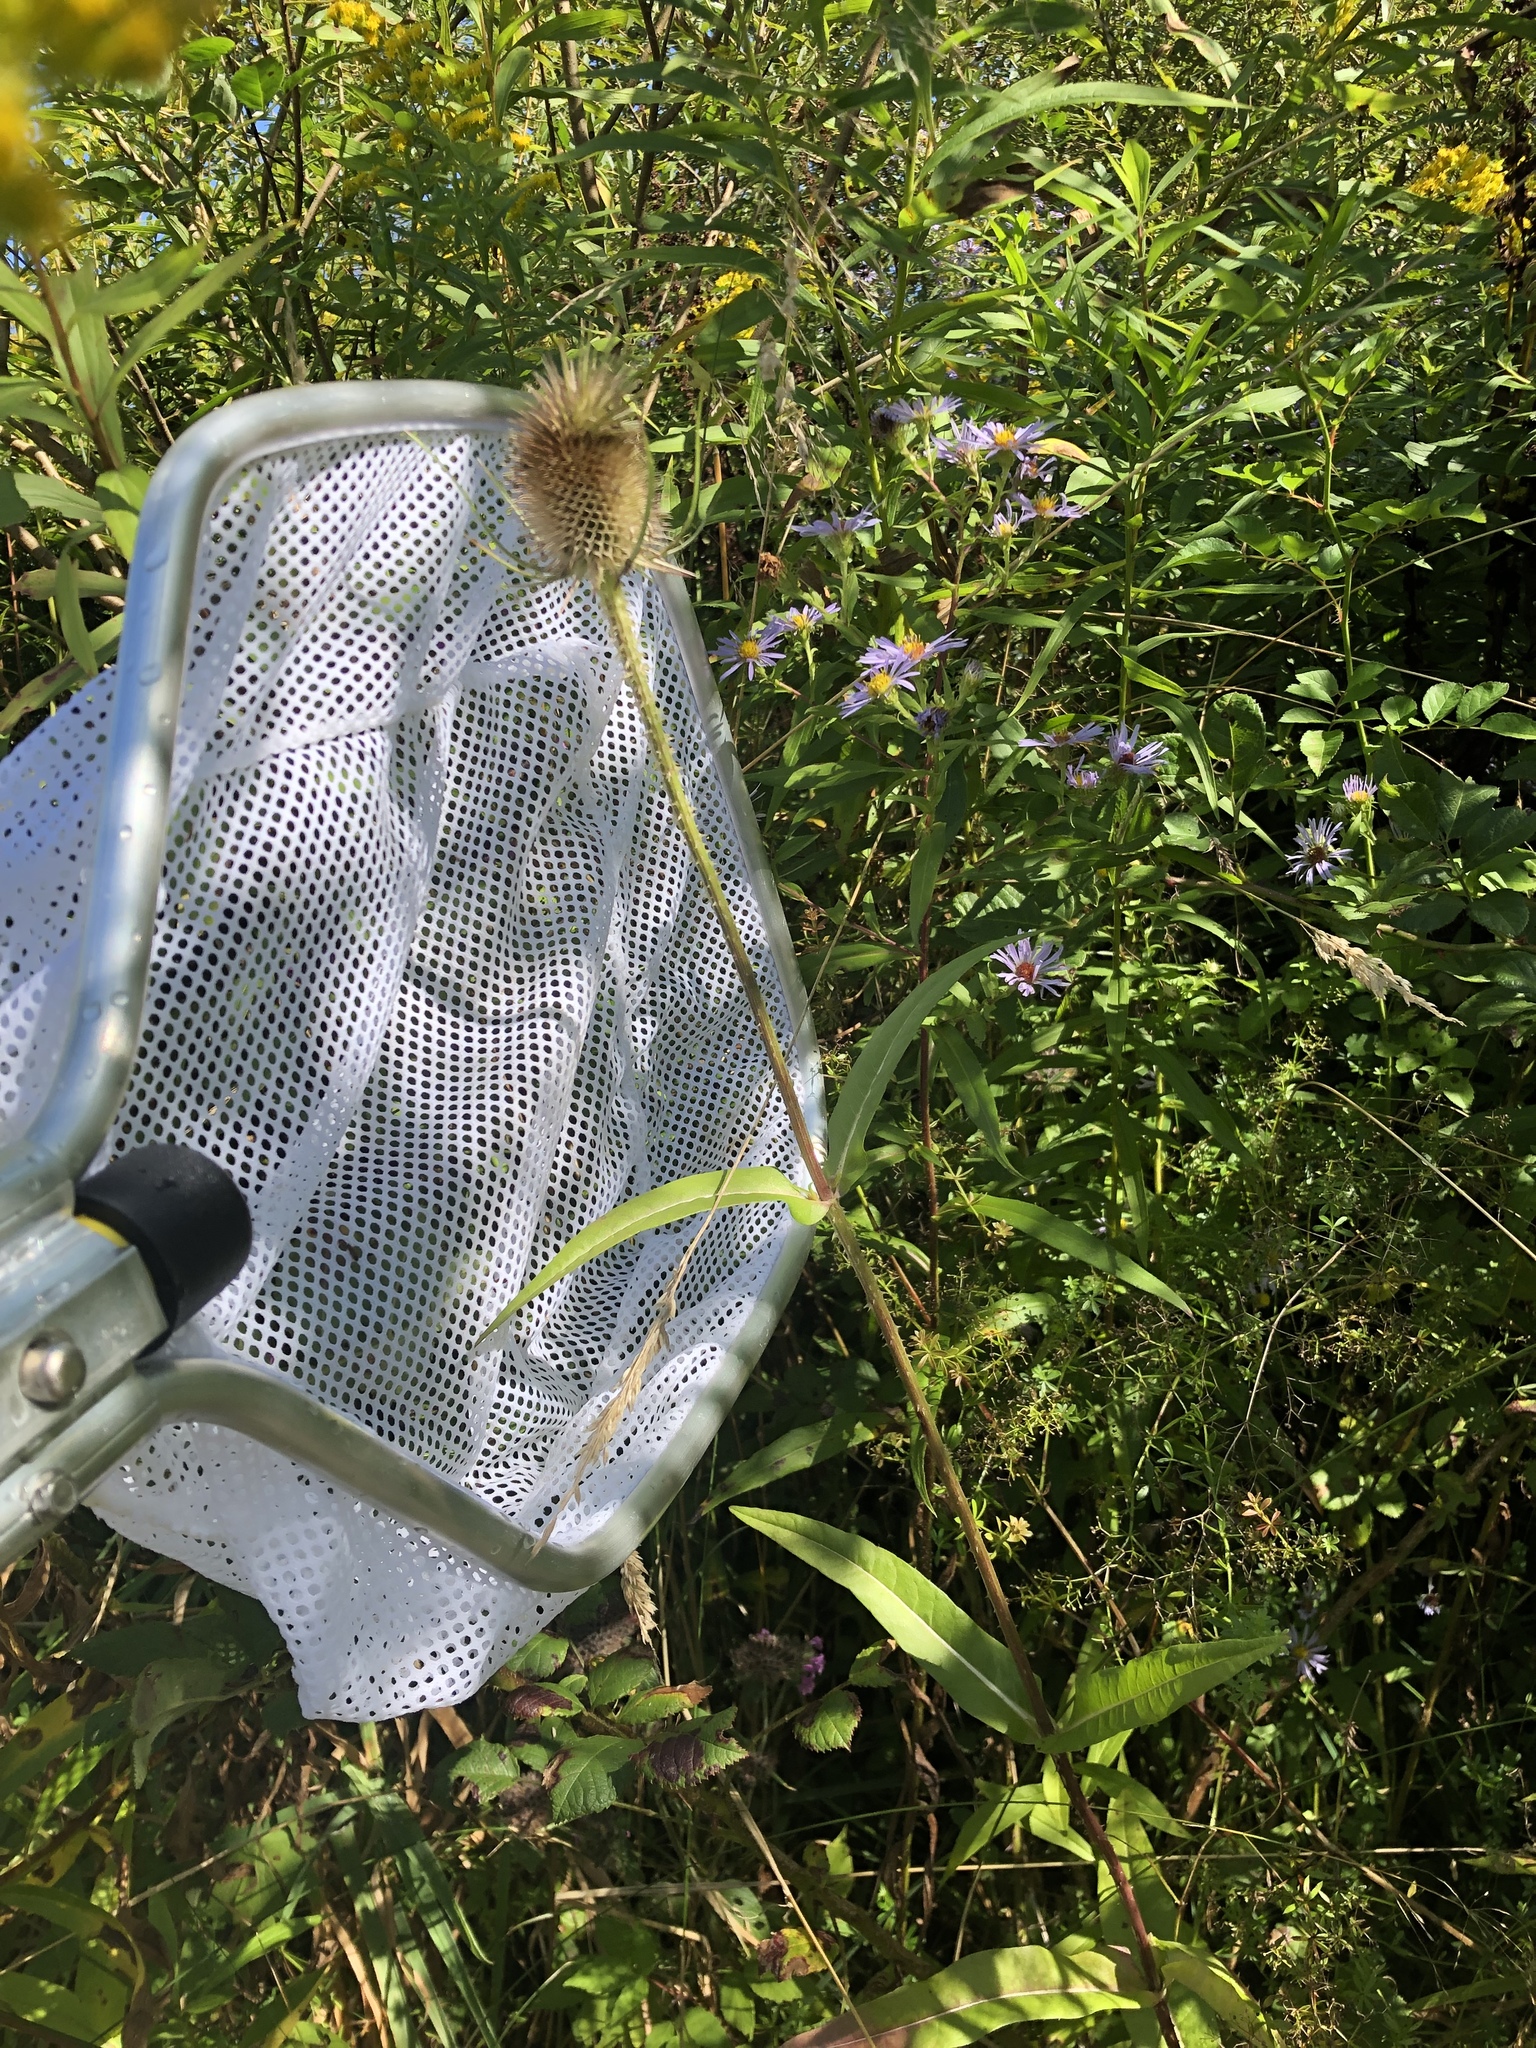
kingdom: Plantae
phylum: Tracheophyta
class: Magnoliopsida
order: Dipsacales
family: Caprifoliaceae
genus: Dipsacus
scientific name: Dipsacus fullonum
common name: Teasel
